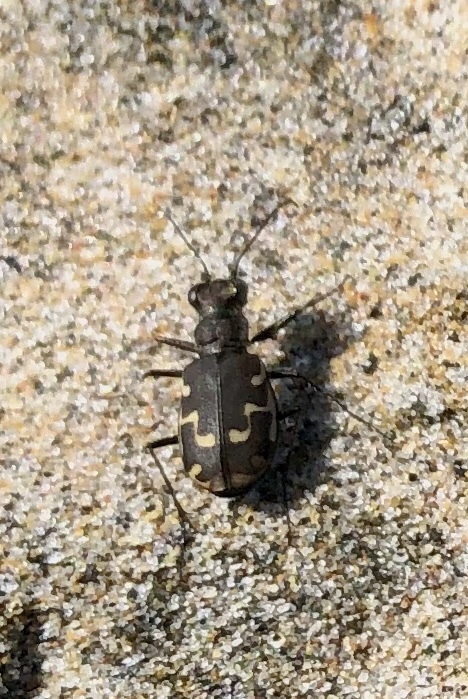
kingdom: Animalia
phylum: Arthropoda
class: Insecta
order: Coleoptera
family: Carabidae
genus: Cicindela
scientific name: Cicindela repanda
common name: Bronzed tiger beetle
